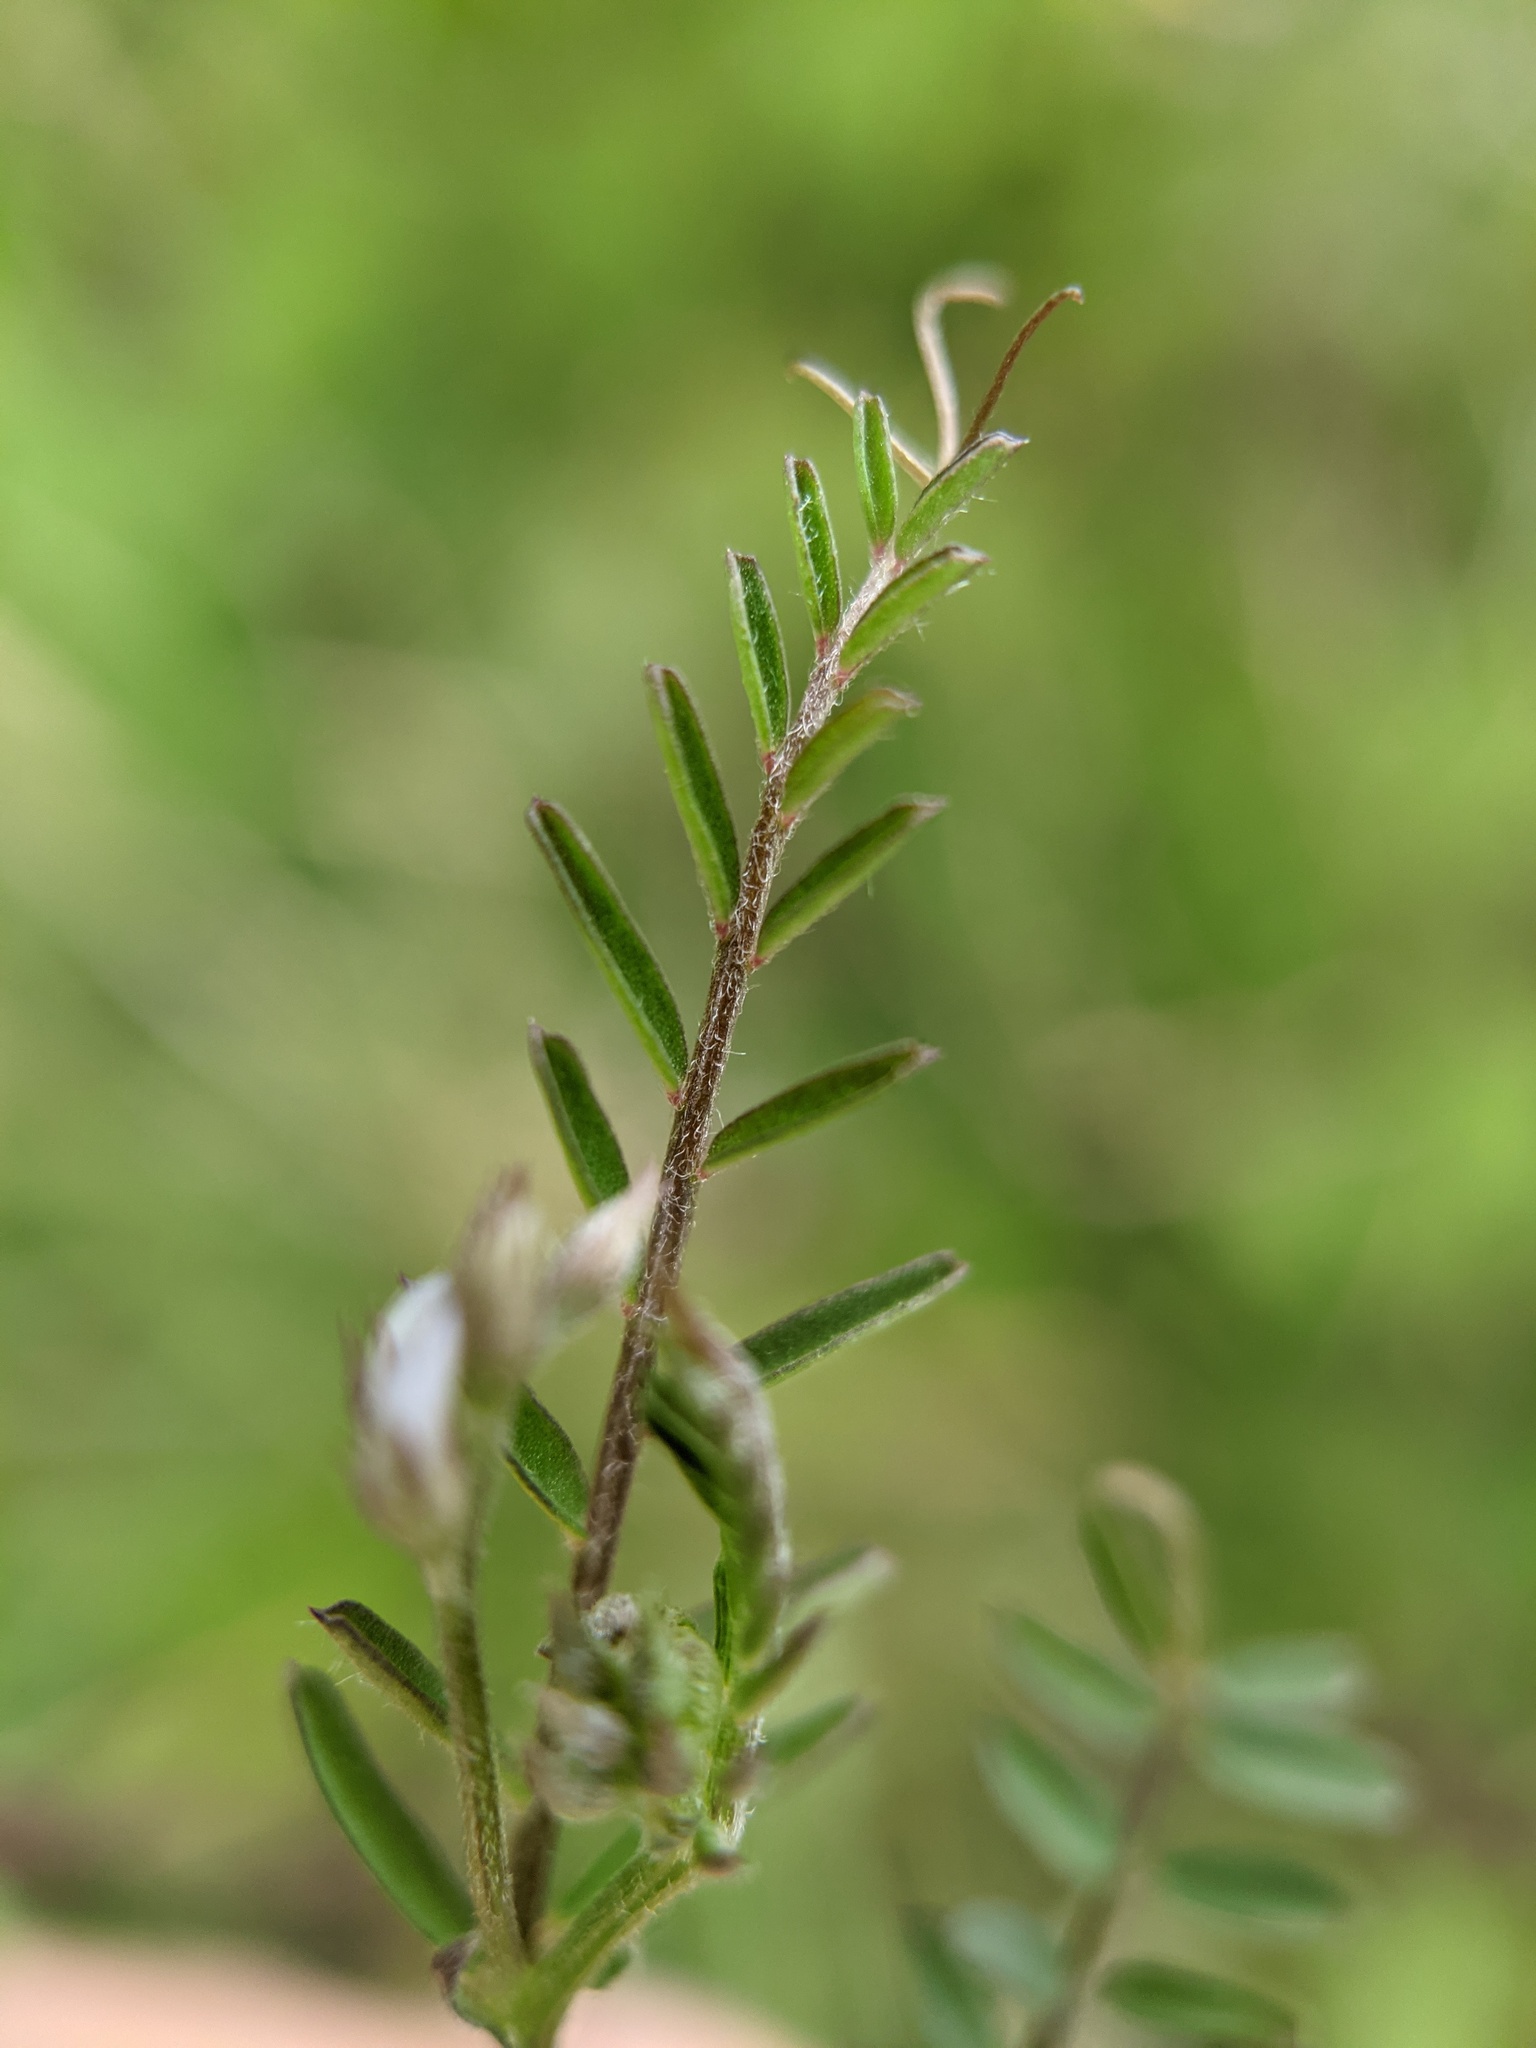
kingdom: Plantae
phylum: Tracheophyta
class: Magnoliopsida
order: Fabales
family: Fabaceae
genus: Vicia
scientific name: Vicia hirsuta
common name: Tiny vetch
